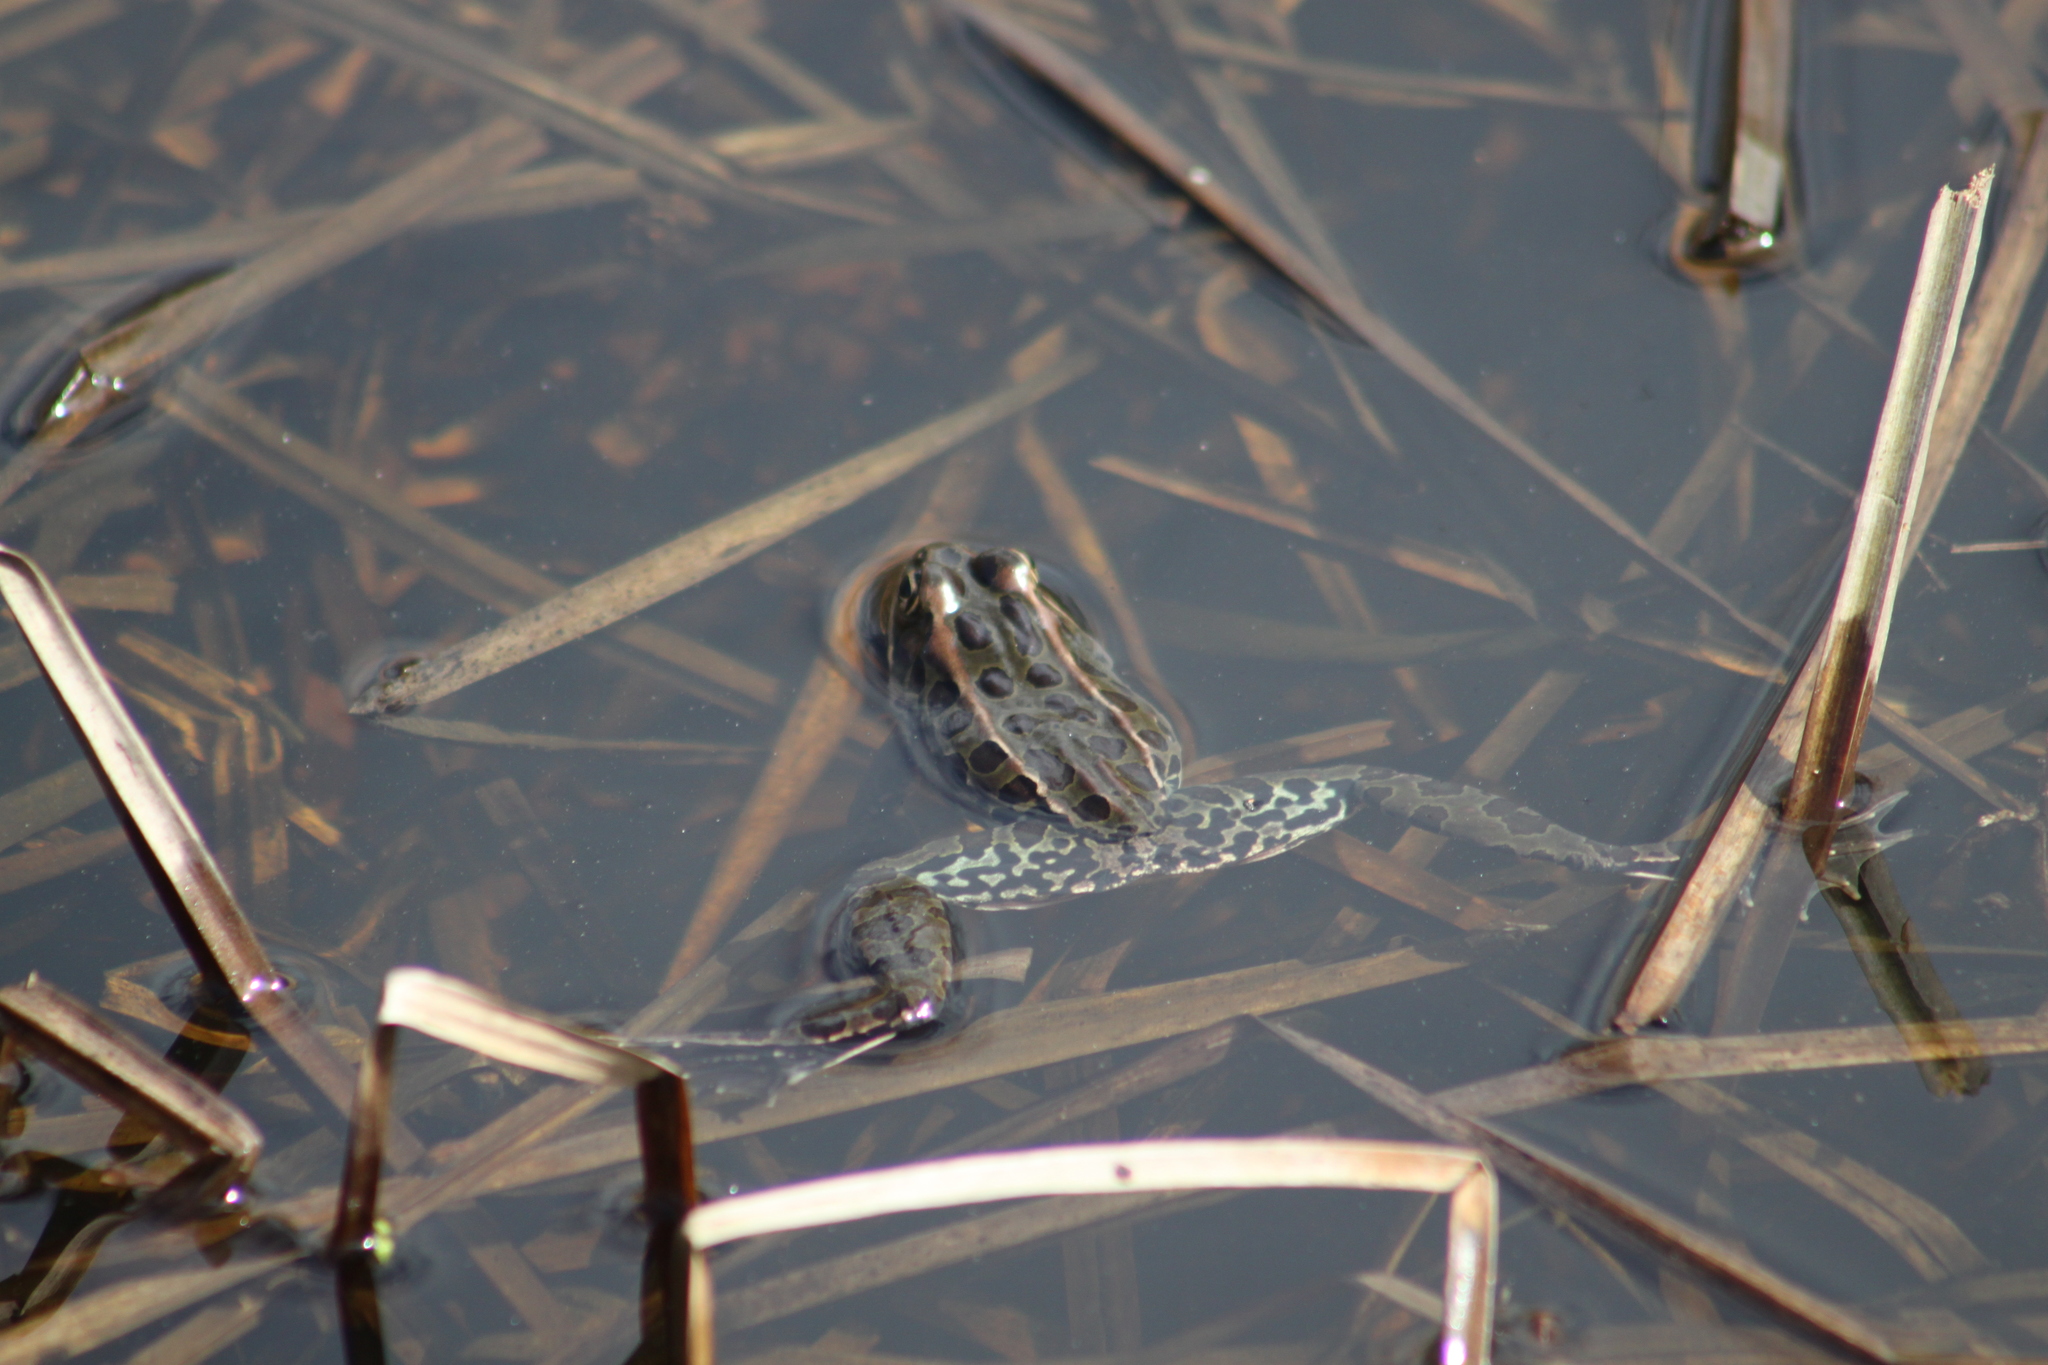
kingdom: Animalia
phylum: Chordata
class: Amphibia
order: Anura
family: Ranidae
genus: Lithobates
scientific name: Lithobates pipiens
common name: Northern leopard frog
